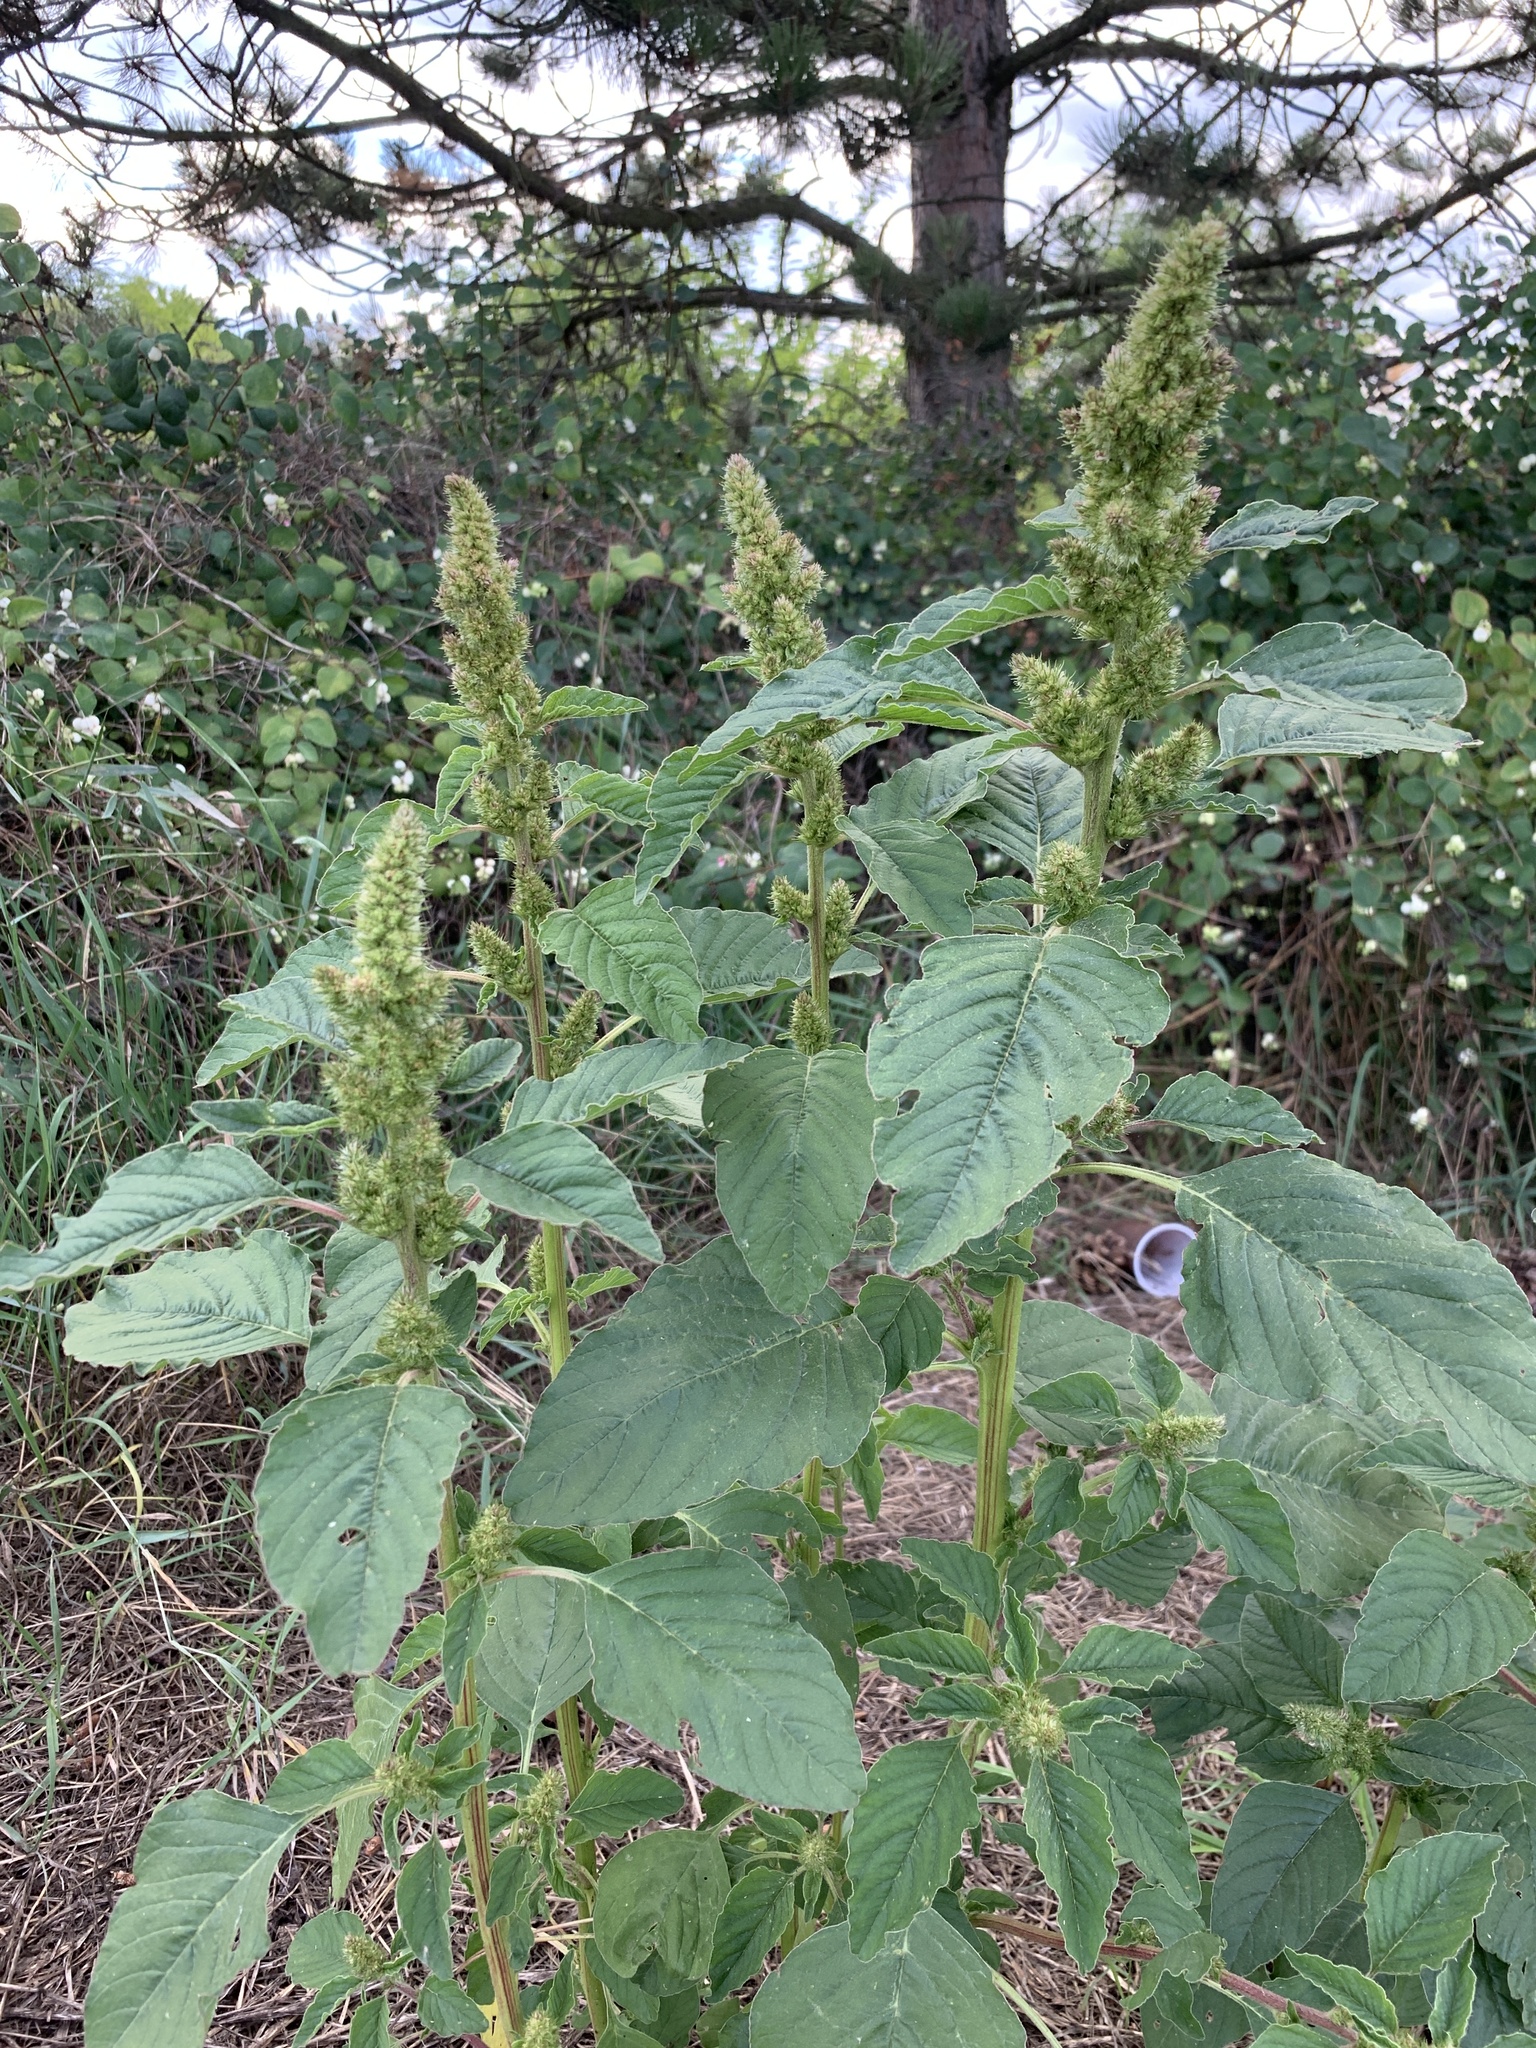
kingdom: Plantae
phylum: Tracheophyta
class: Magnoliopsida
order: Caryophyllales
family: Amaranthaceae
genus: Amaranthus
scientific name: Amaranthus retroflexus
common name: Redroot amaranth
